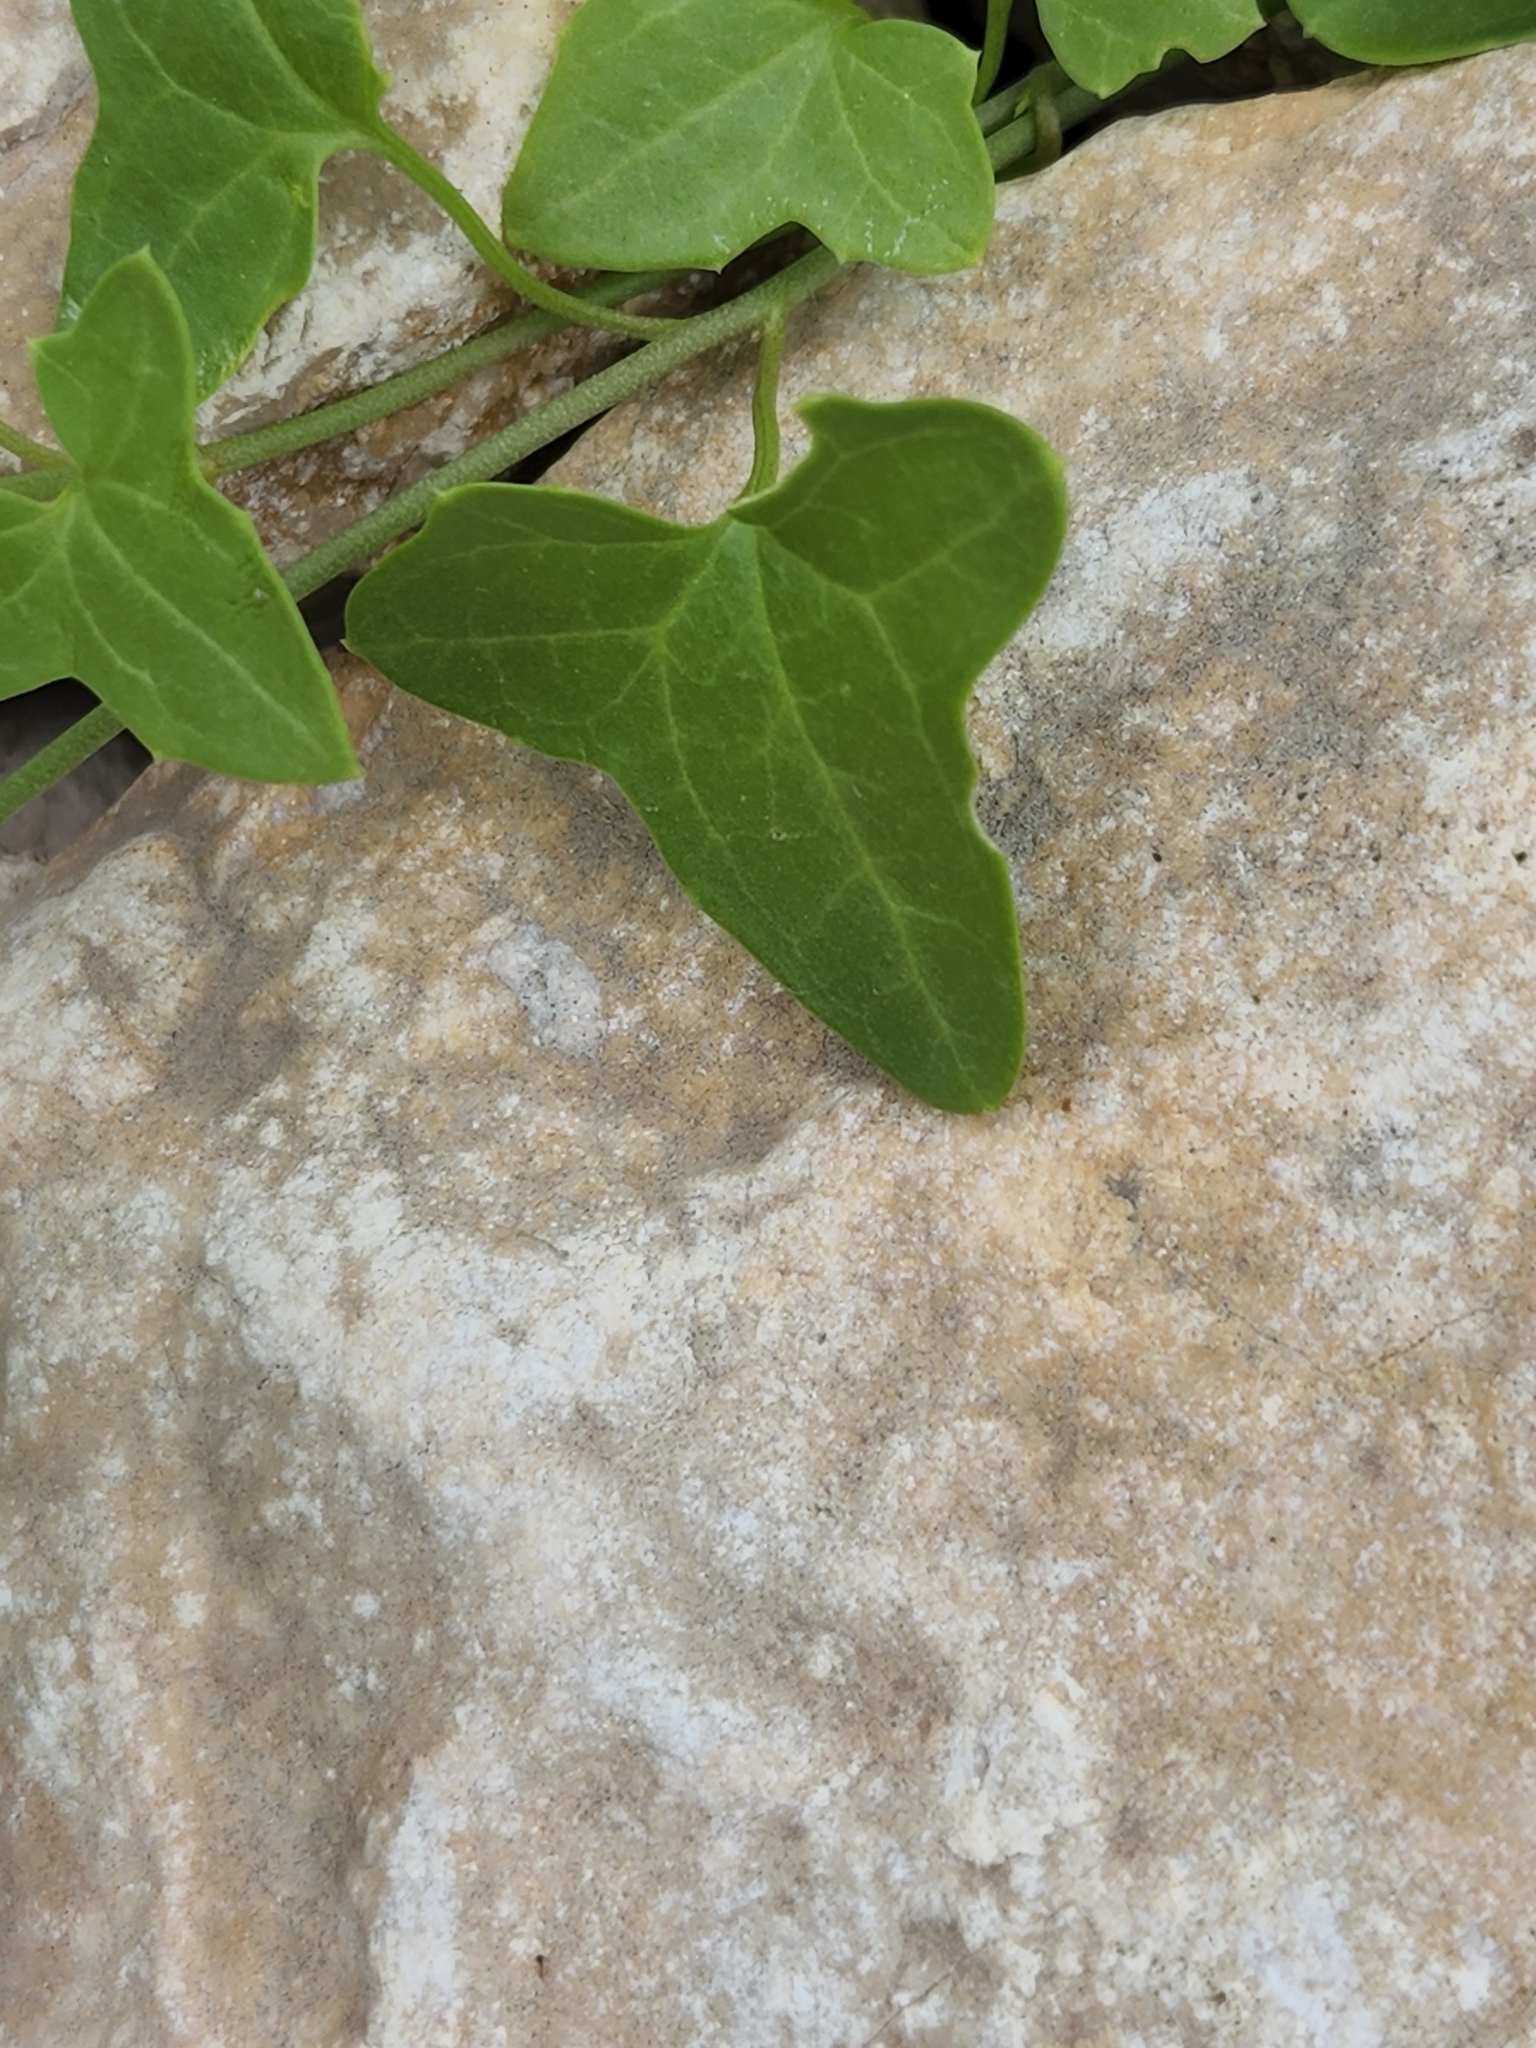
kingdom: Plantae
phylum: Tracheophyta
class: Magnoliopsida
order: Lamiales
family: Plantaginaceae
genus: Maurandella
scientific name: Maurandella antirrhiniflora
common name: Violet twining-snapdragon
